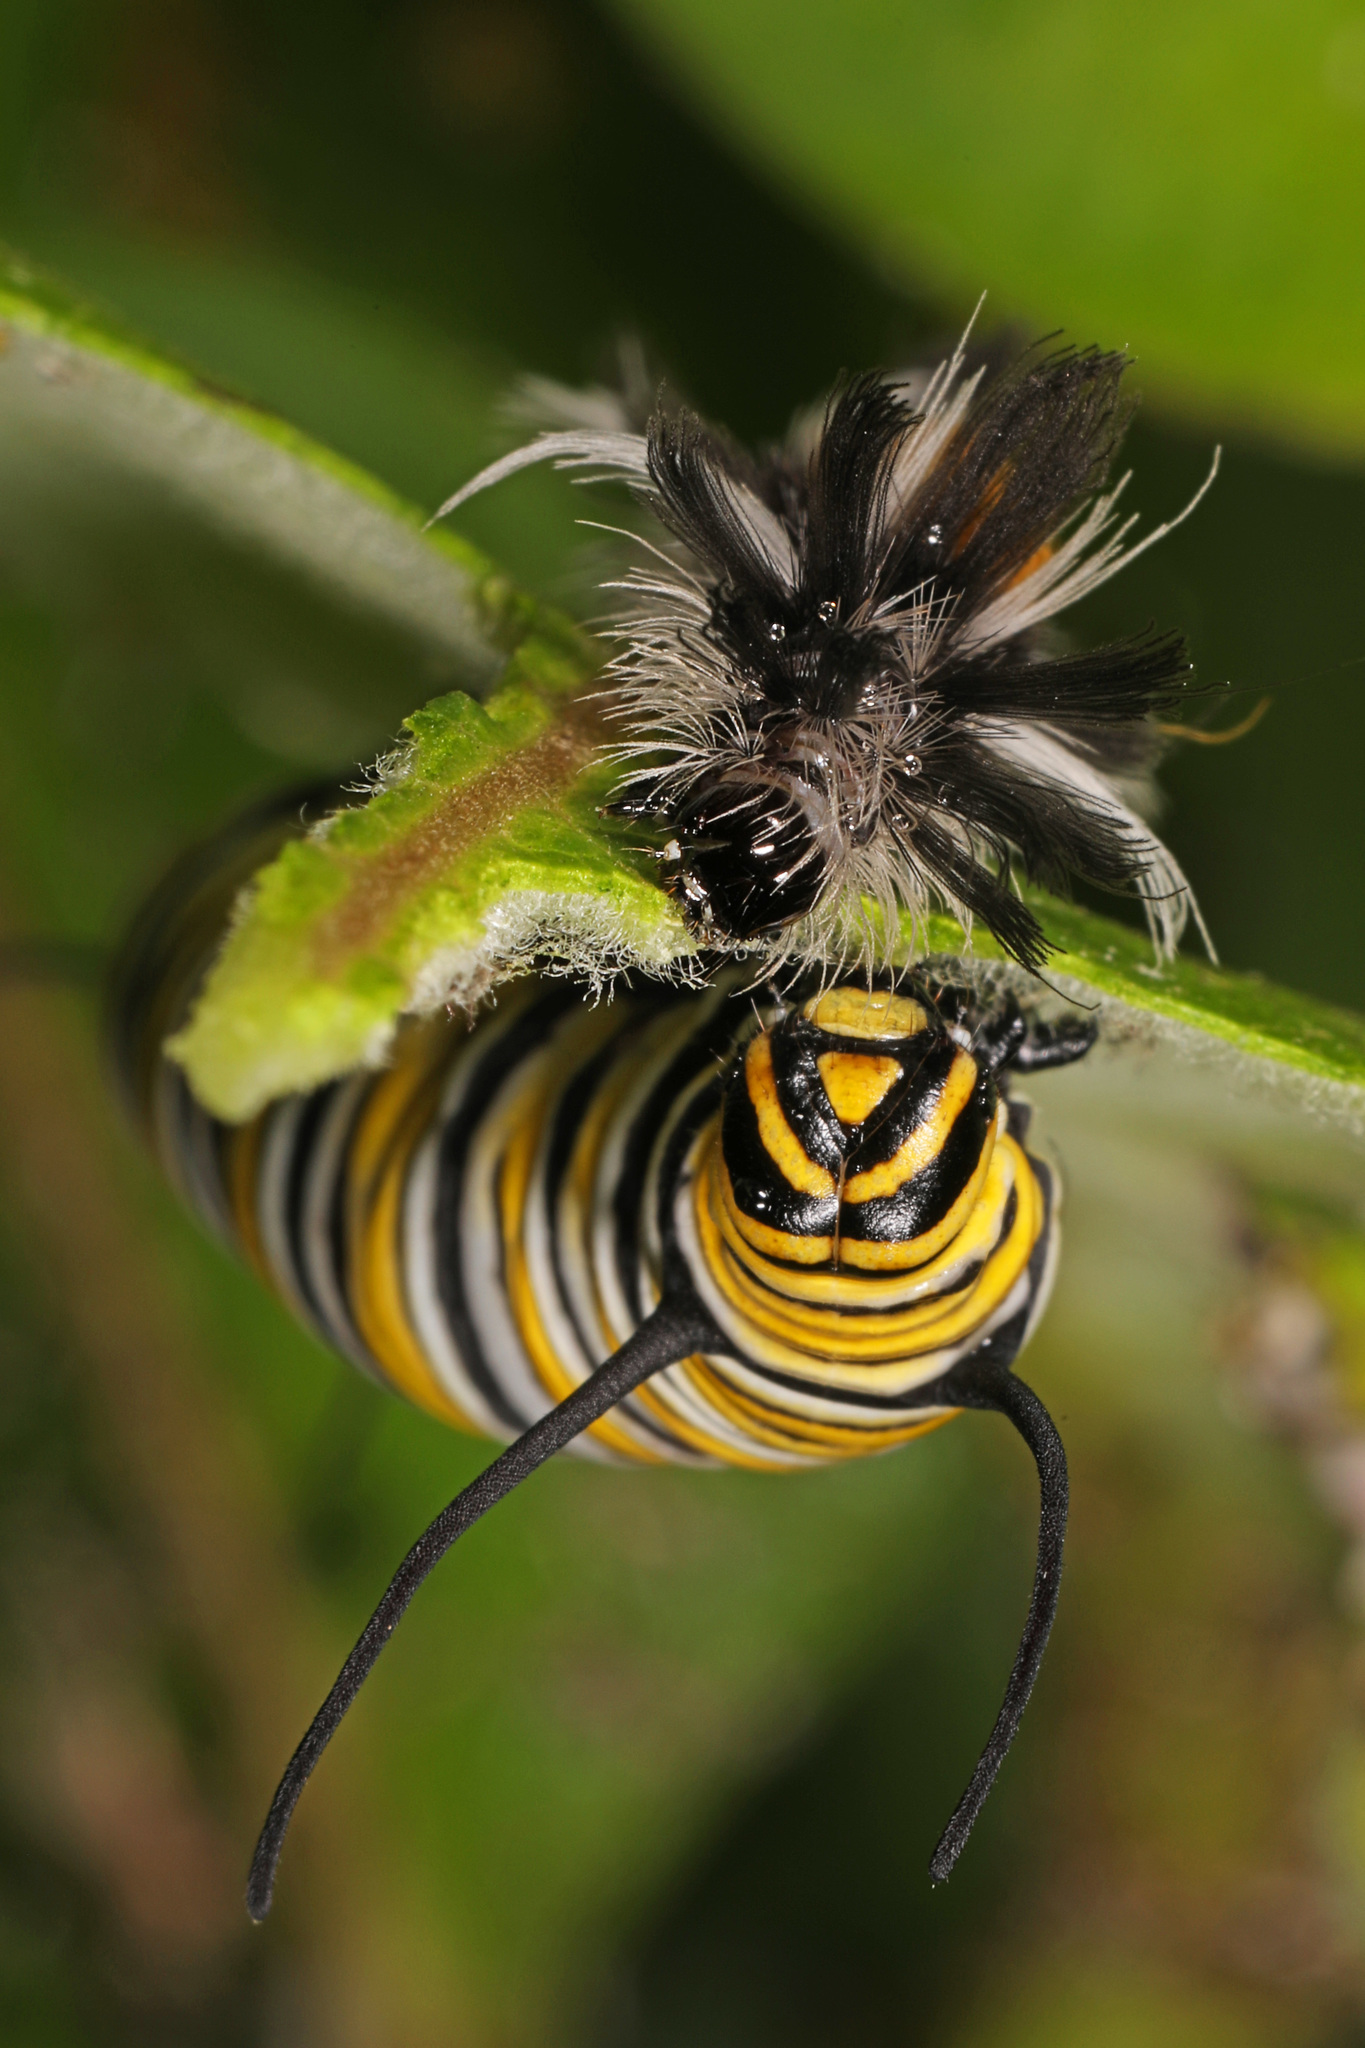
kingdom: Animalia
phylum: Arthropoda
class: Insecta
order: Lepidoptera
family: Nymphalidae
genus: Danaus
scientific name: Danaus plexippus
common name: Monarch
